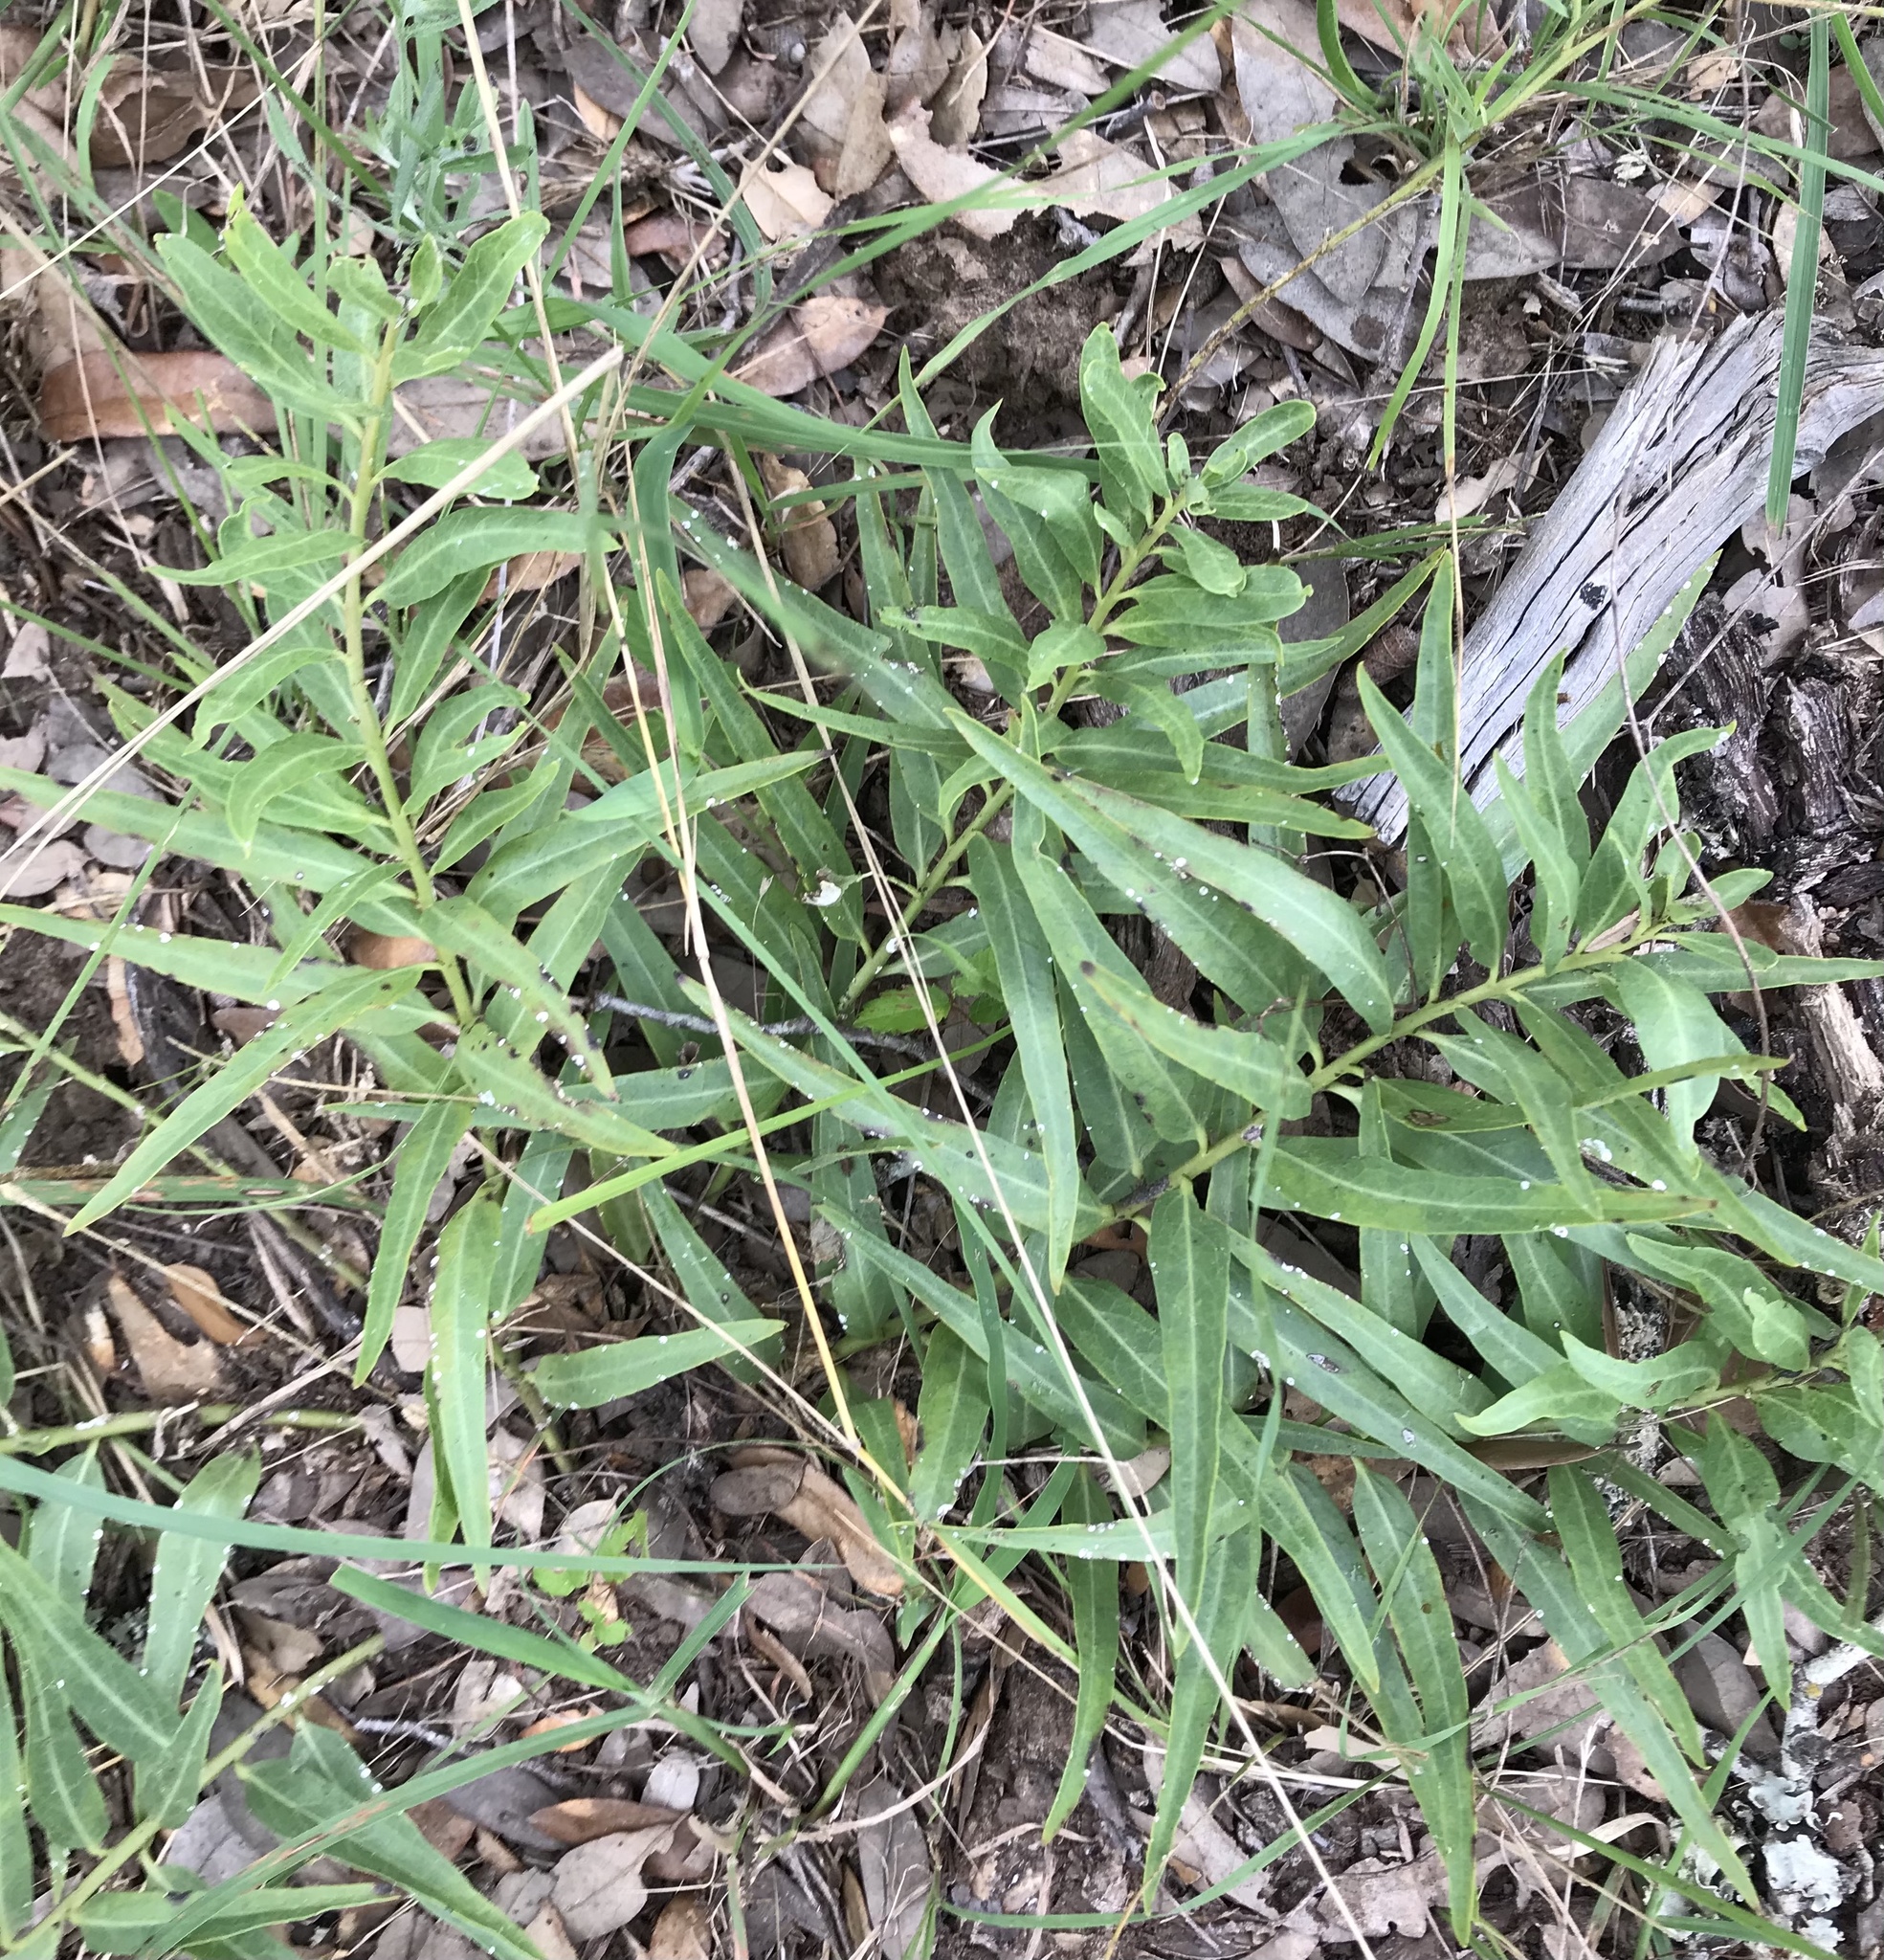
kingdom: Plantae
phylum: Tracheophyta
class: Magnoliopsida
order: Gentianales
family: Apocynaceae
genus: Asclepias
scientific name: Asclepias asperula
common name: Antelope horns
